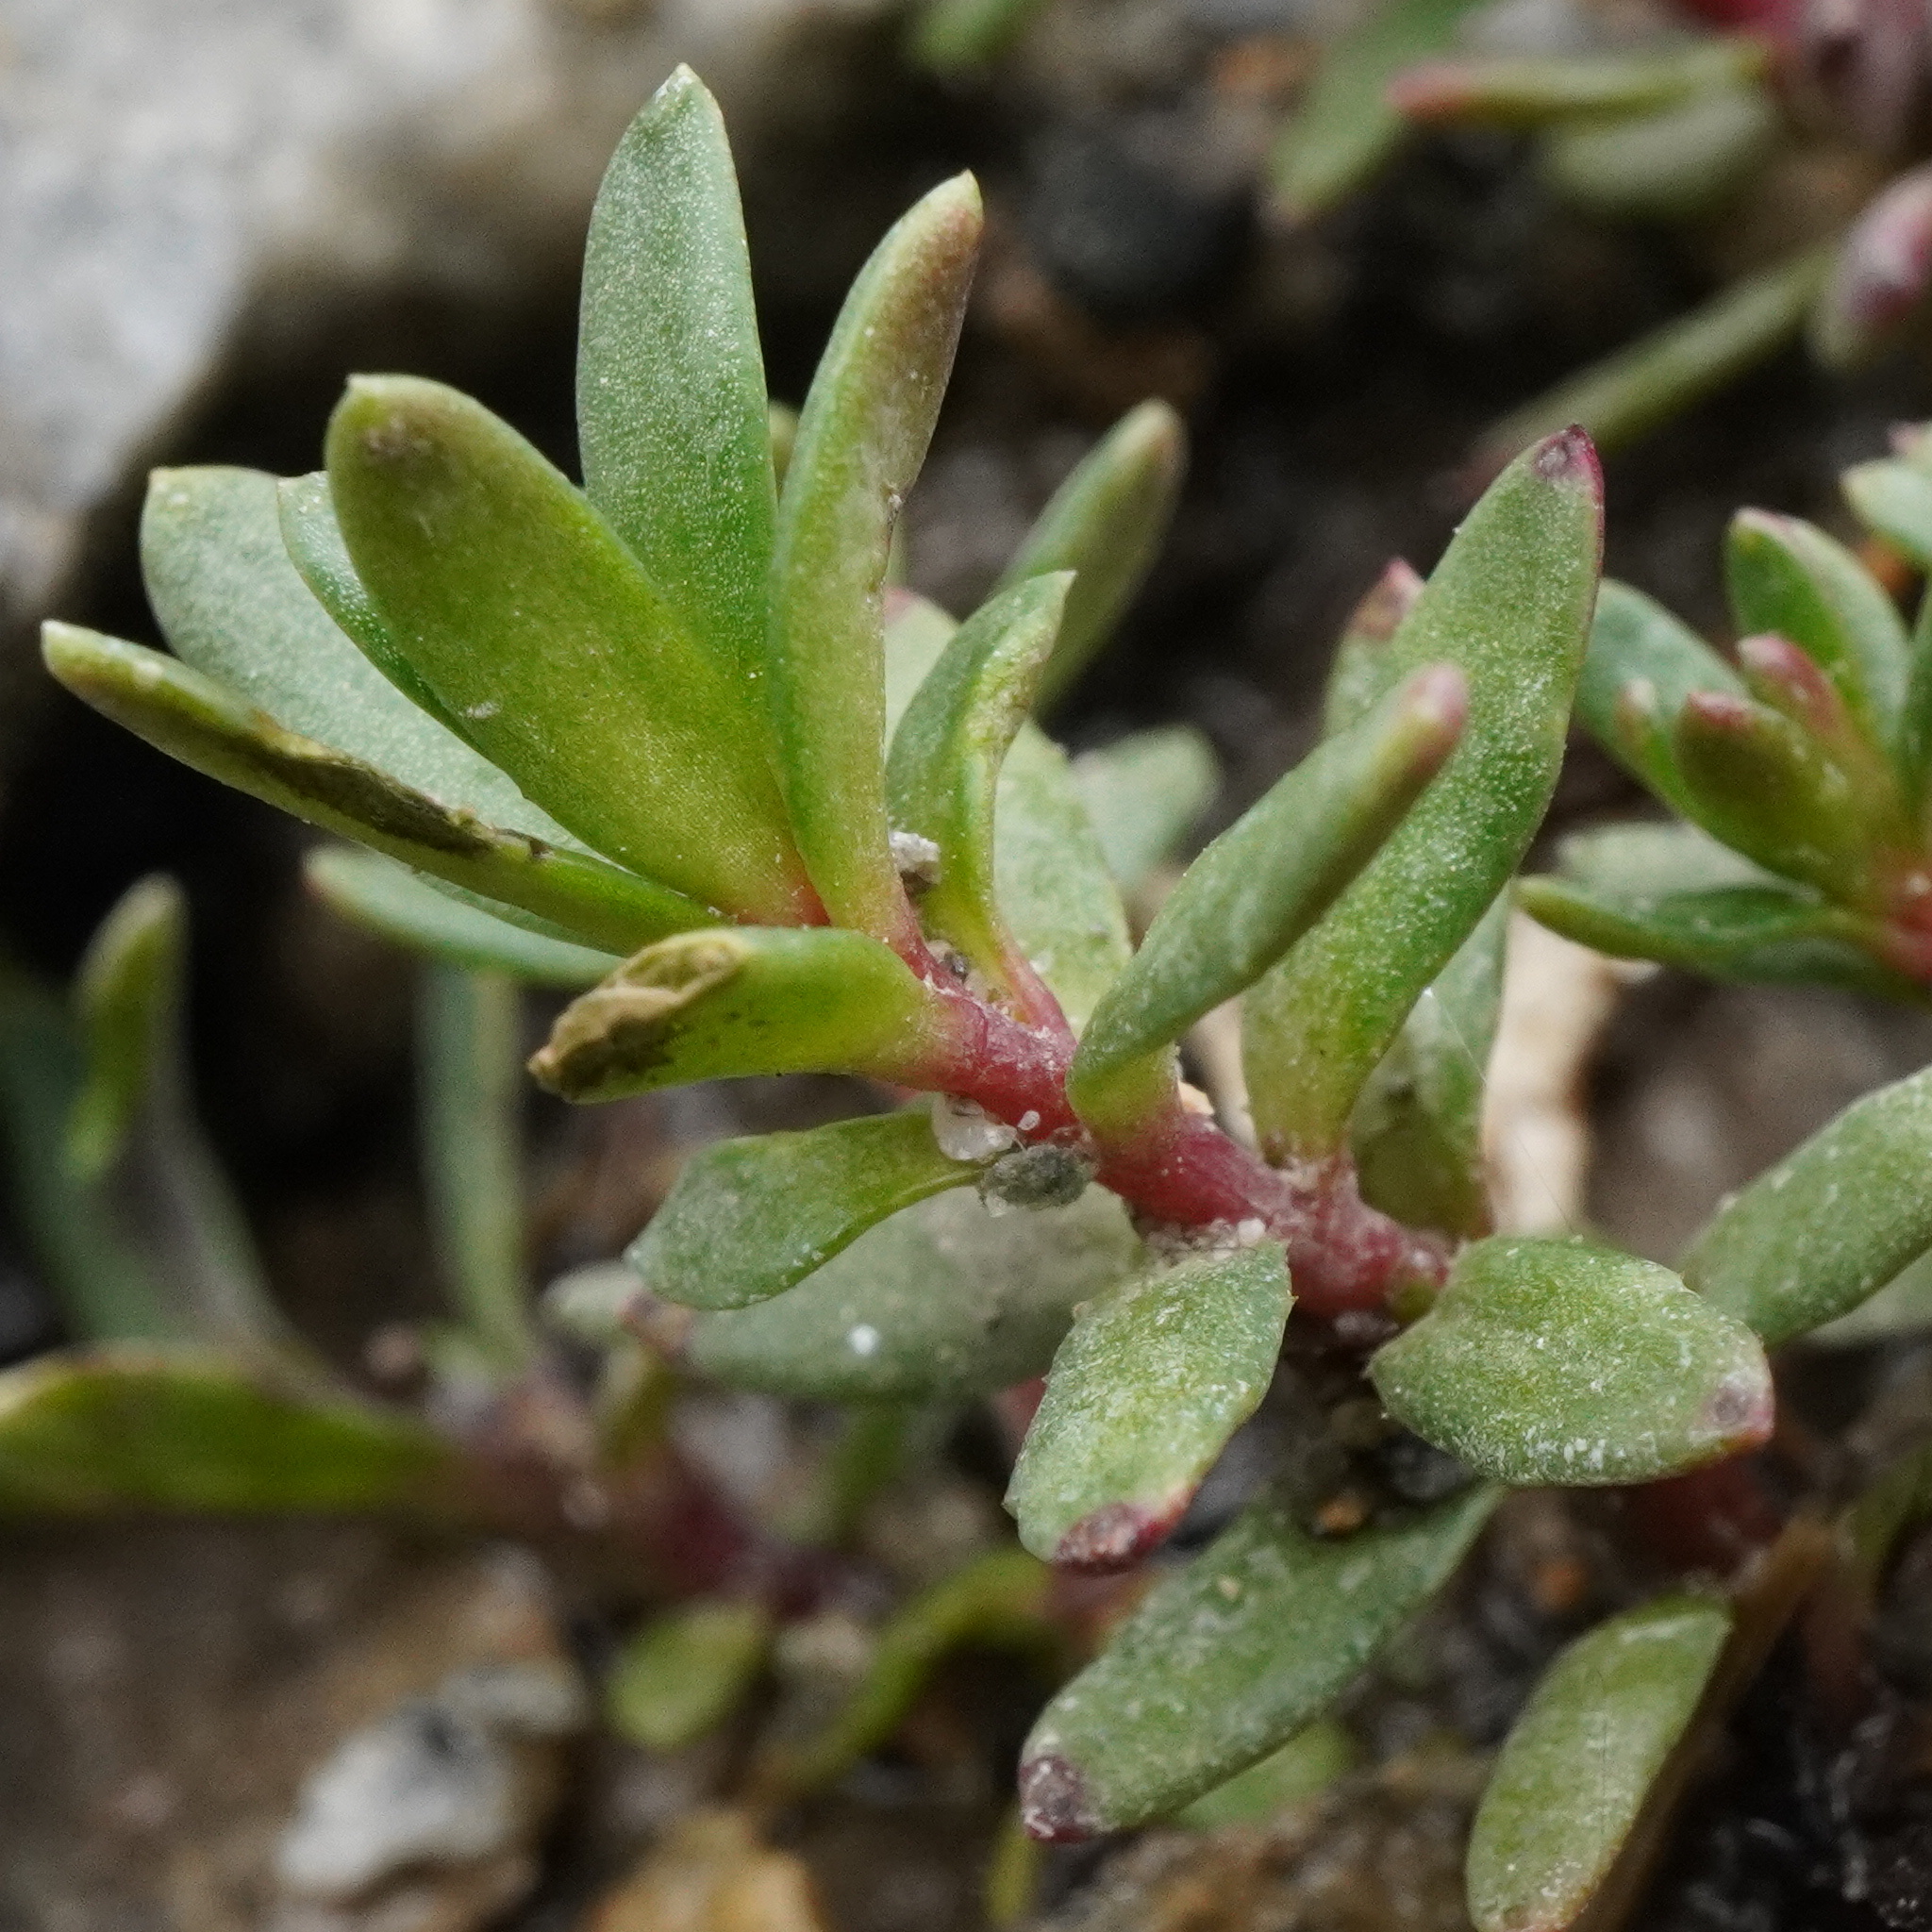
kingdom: Plantae
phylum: Tracheophyta
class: Magnoliopsida
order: Saxifragales
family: Saxifragaceae
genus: Saxifraga
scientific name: Saxifraga aizoides
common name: Yellow mountain saxifrage
